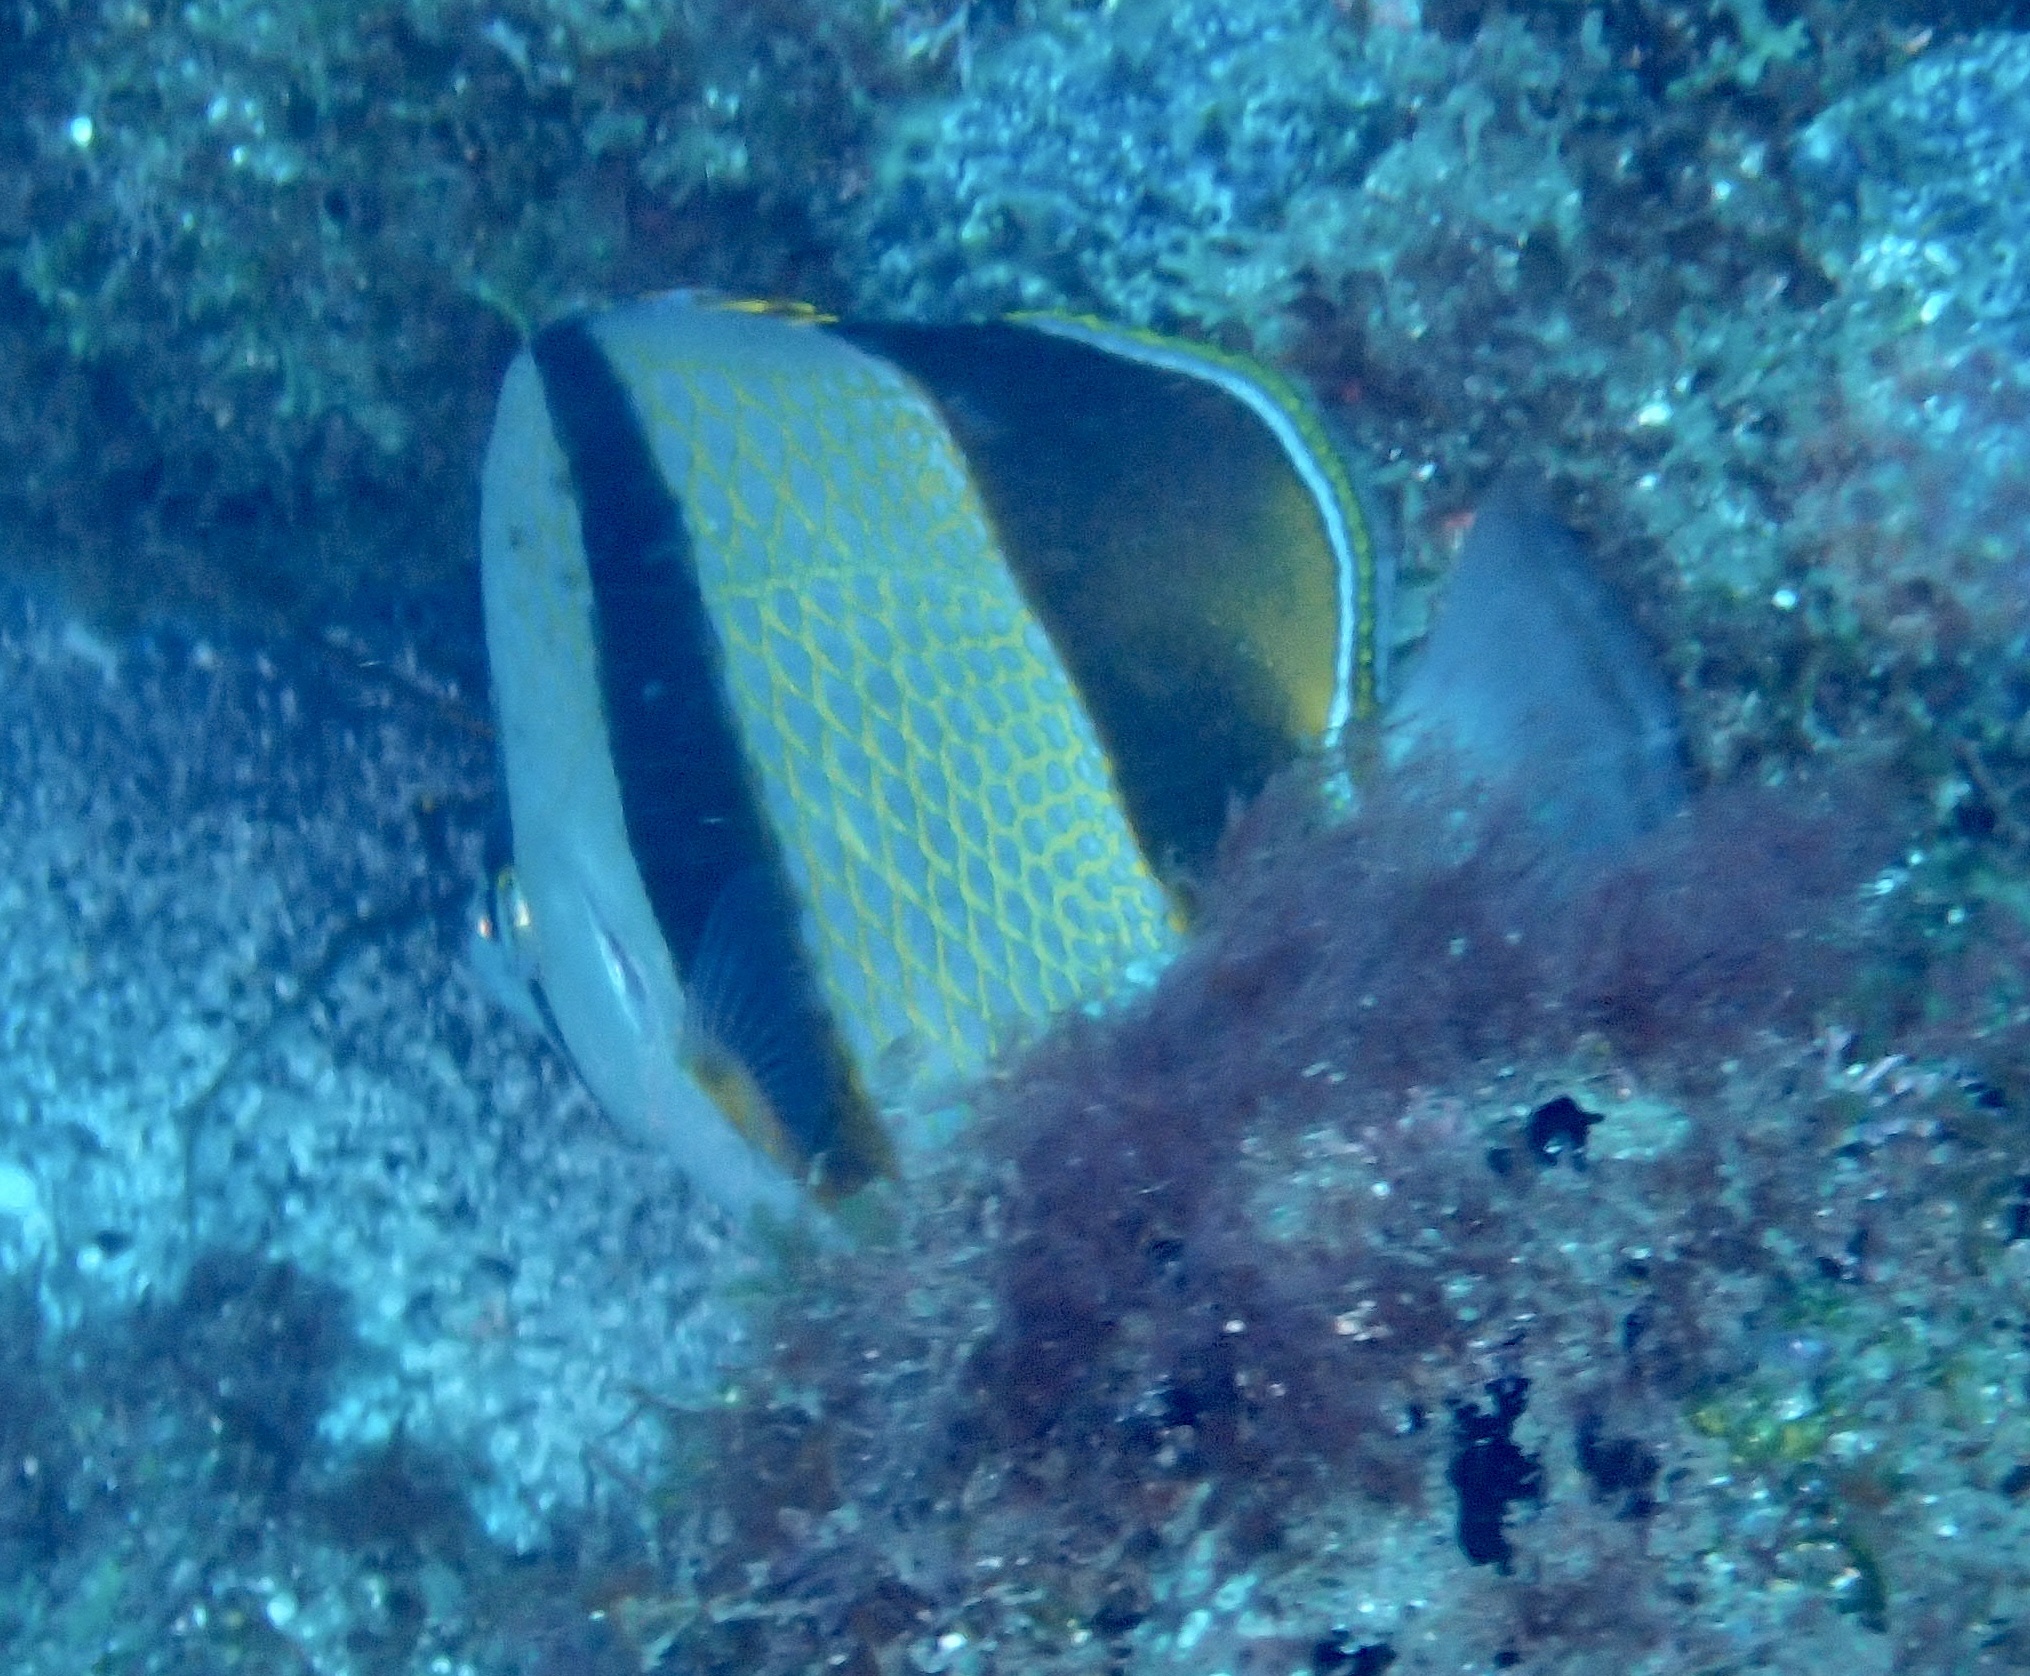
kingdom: Animalia
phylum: Chordata
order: Perciformes
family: Chaetodontidae
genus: Chaetodon
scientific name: Chaetodon robustus
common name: Three-banded butterflyfish
